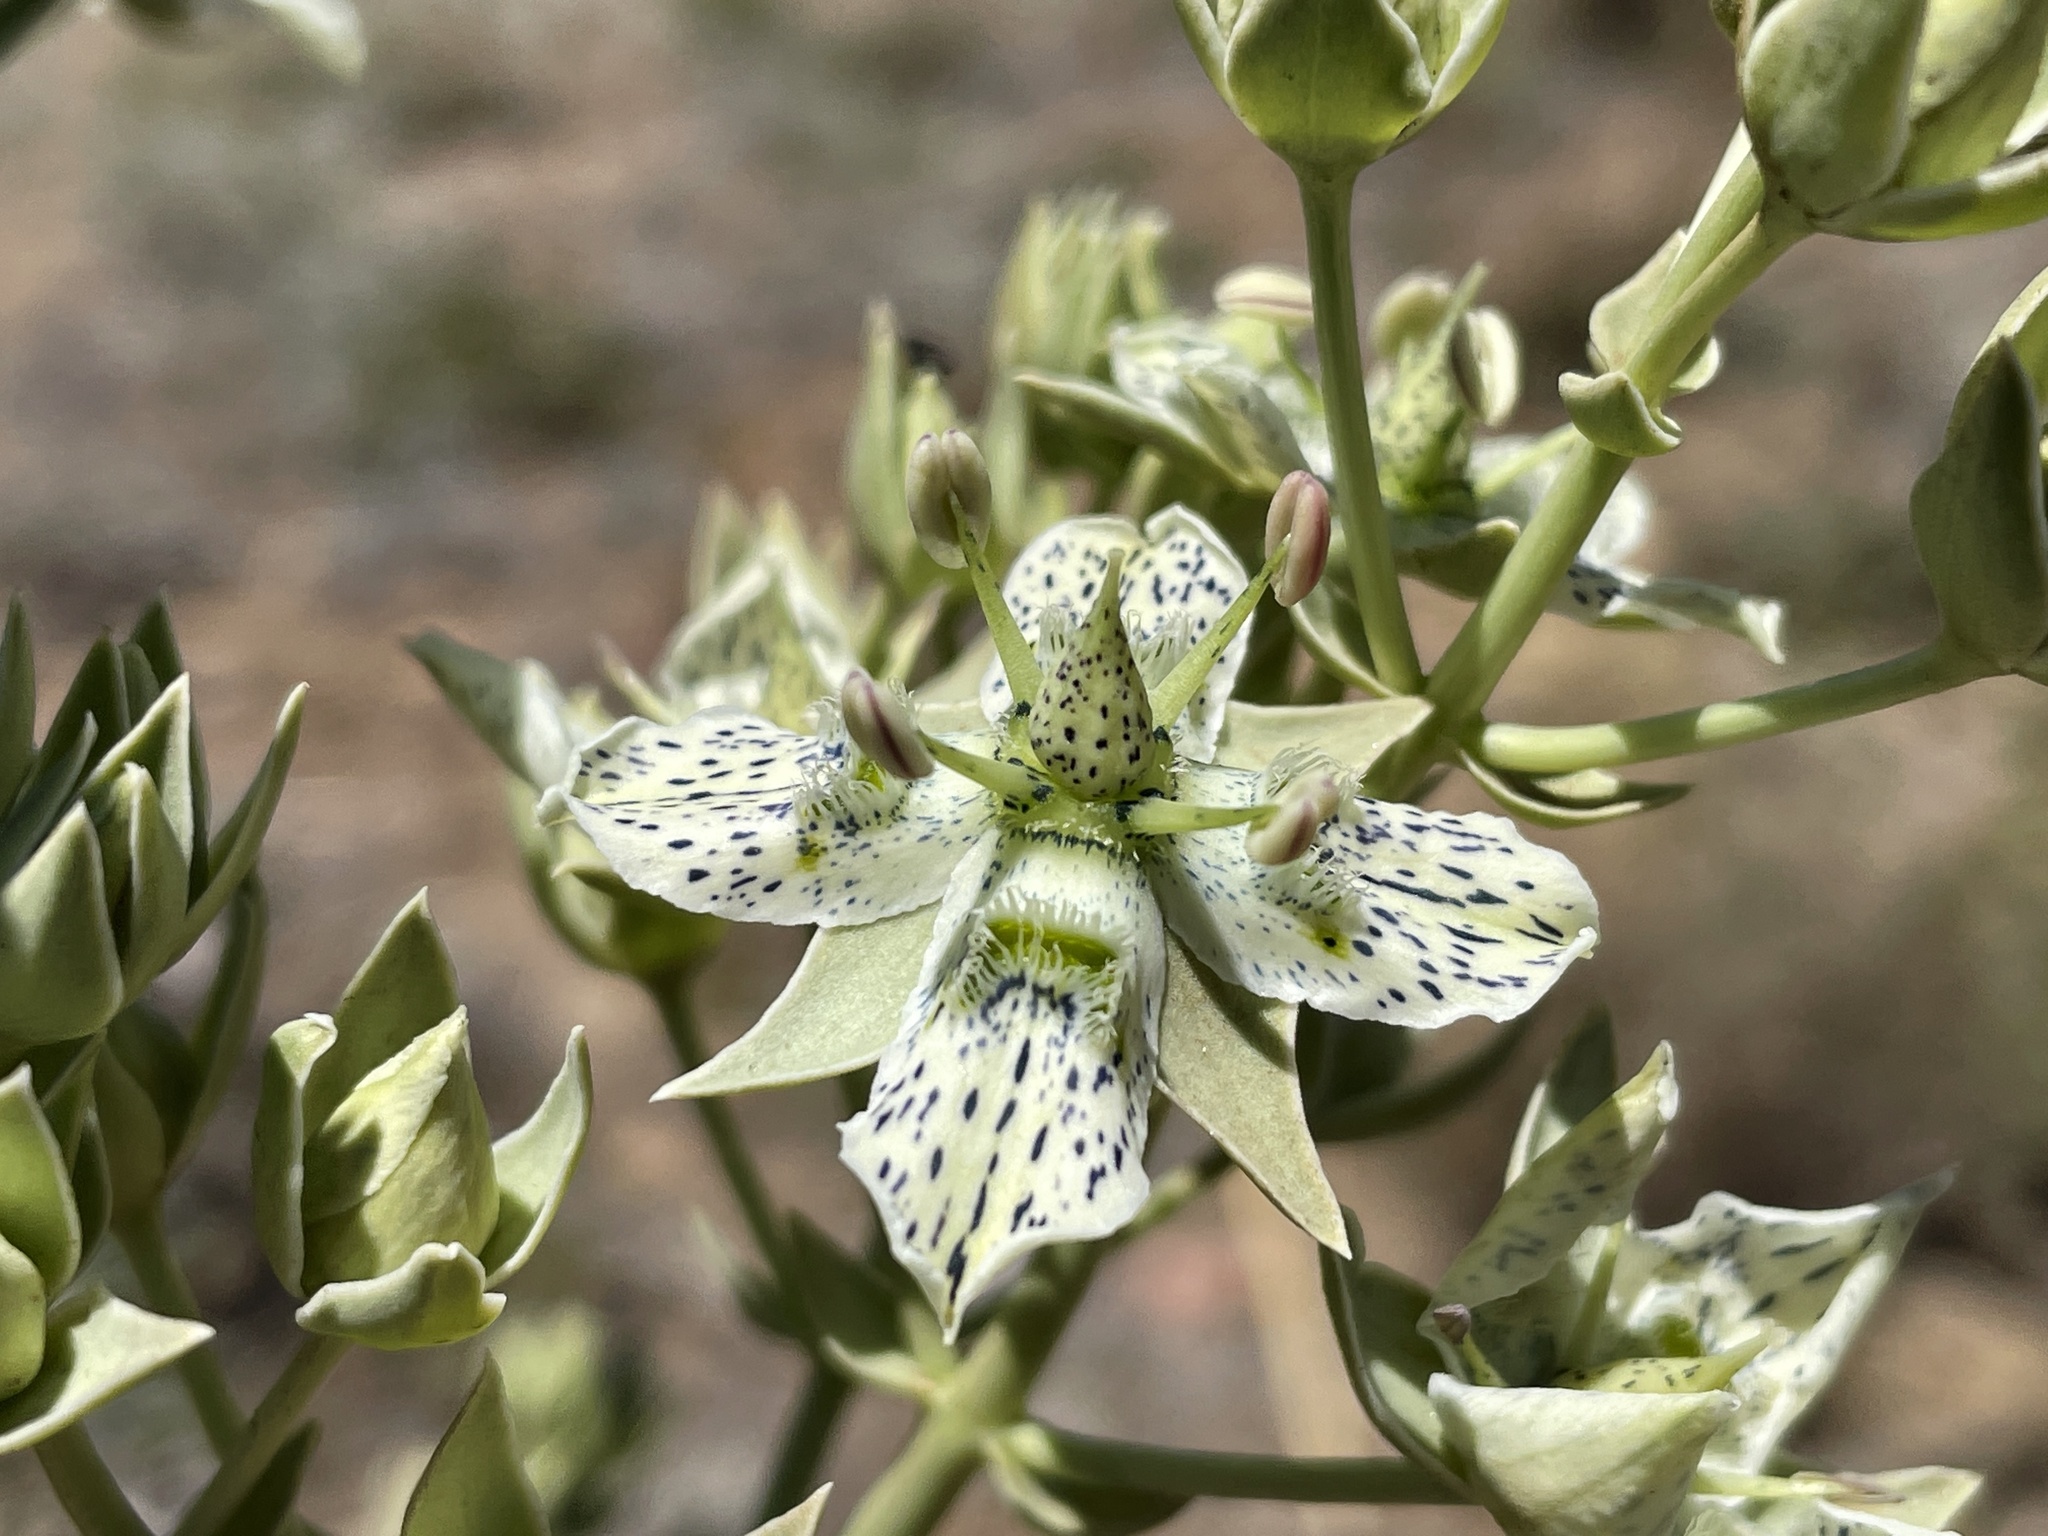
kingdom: Plantae
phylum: Tracheophyta
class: Magnoliopsida
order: Gentianales
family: Gentianaceae
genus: Frasera
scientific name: Frasera parryi
